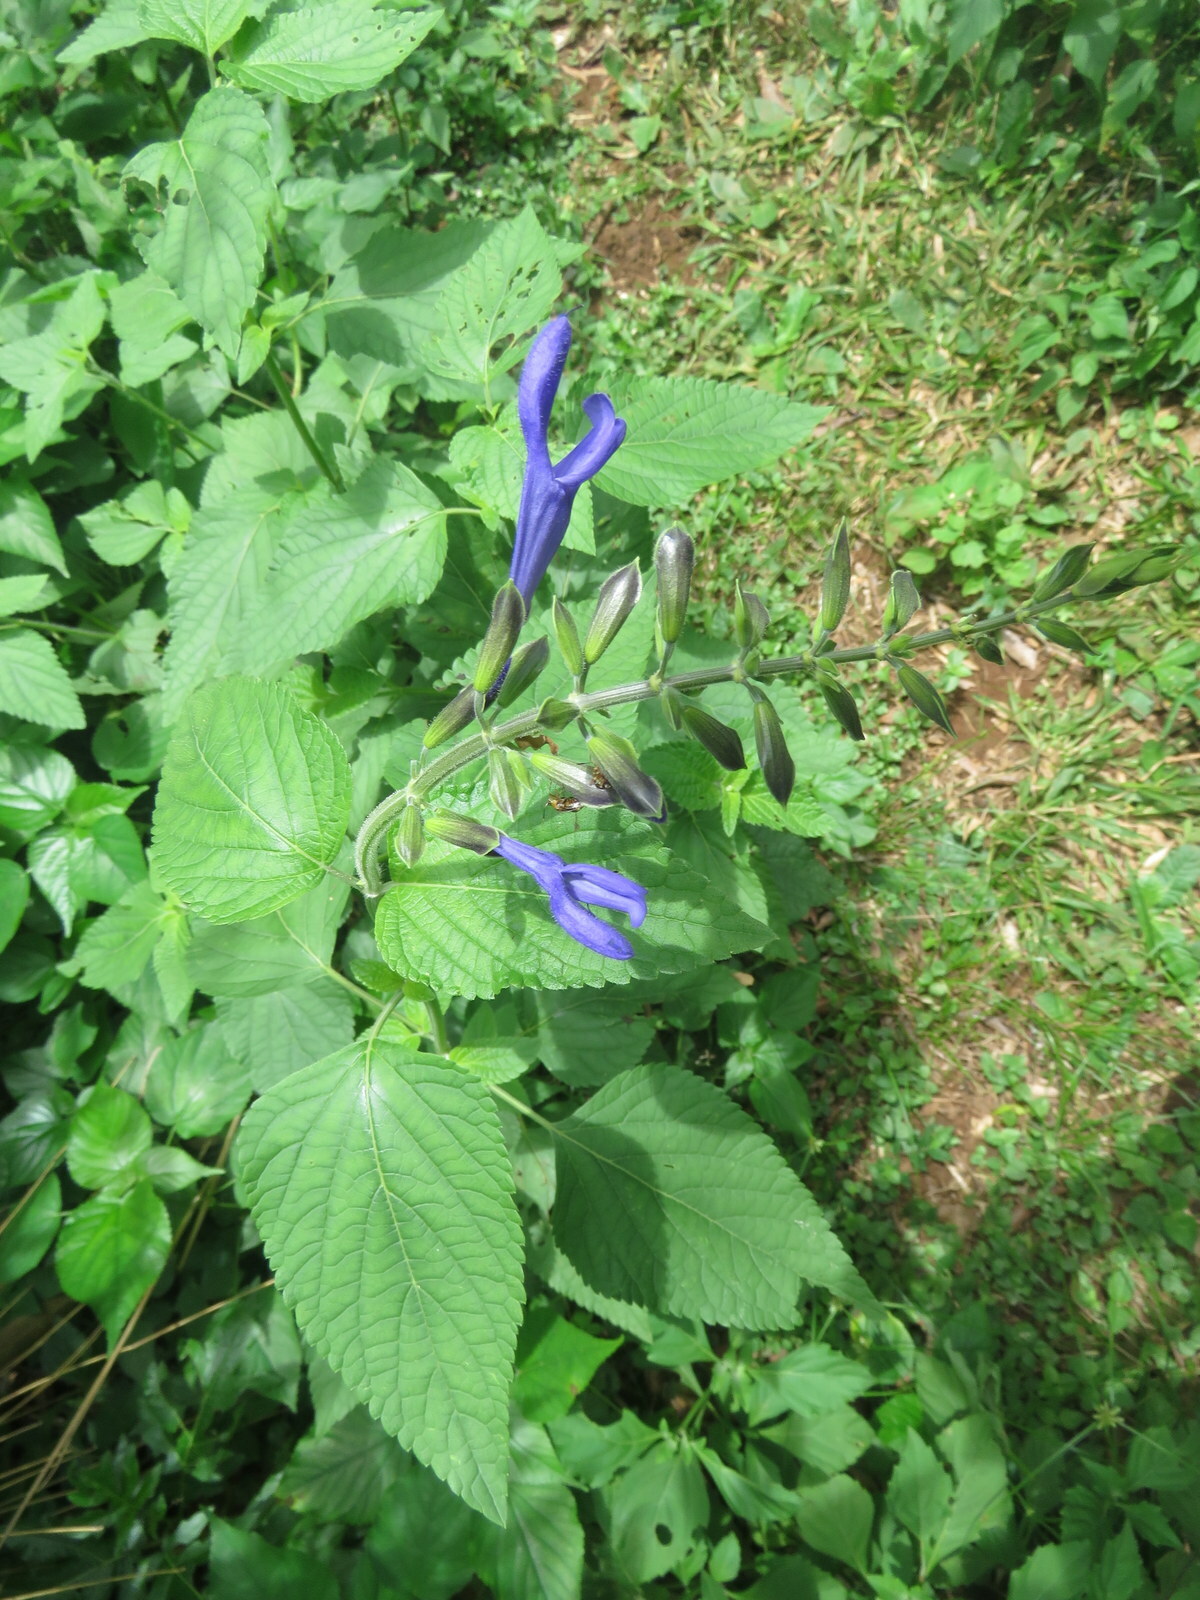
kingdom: Plantae
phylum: Tracheophyta
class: Magnoliopsida
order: Lamiales
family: Lamiaceae
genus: Salvia
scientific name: Salvia guaranitica
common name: Anise-scented sage
